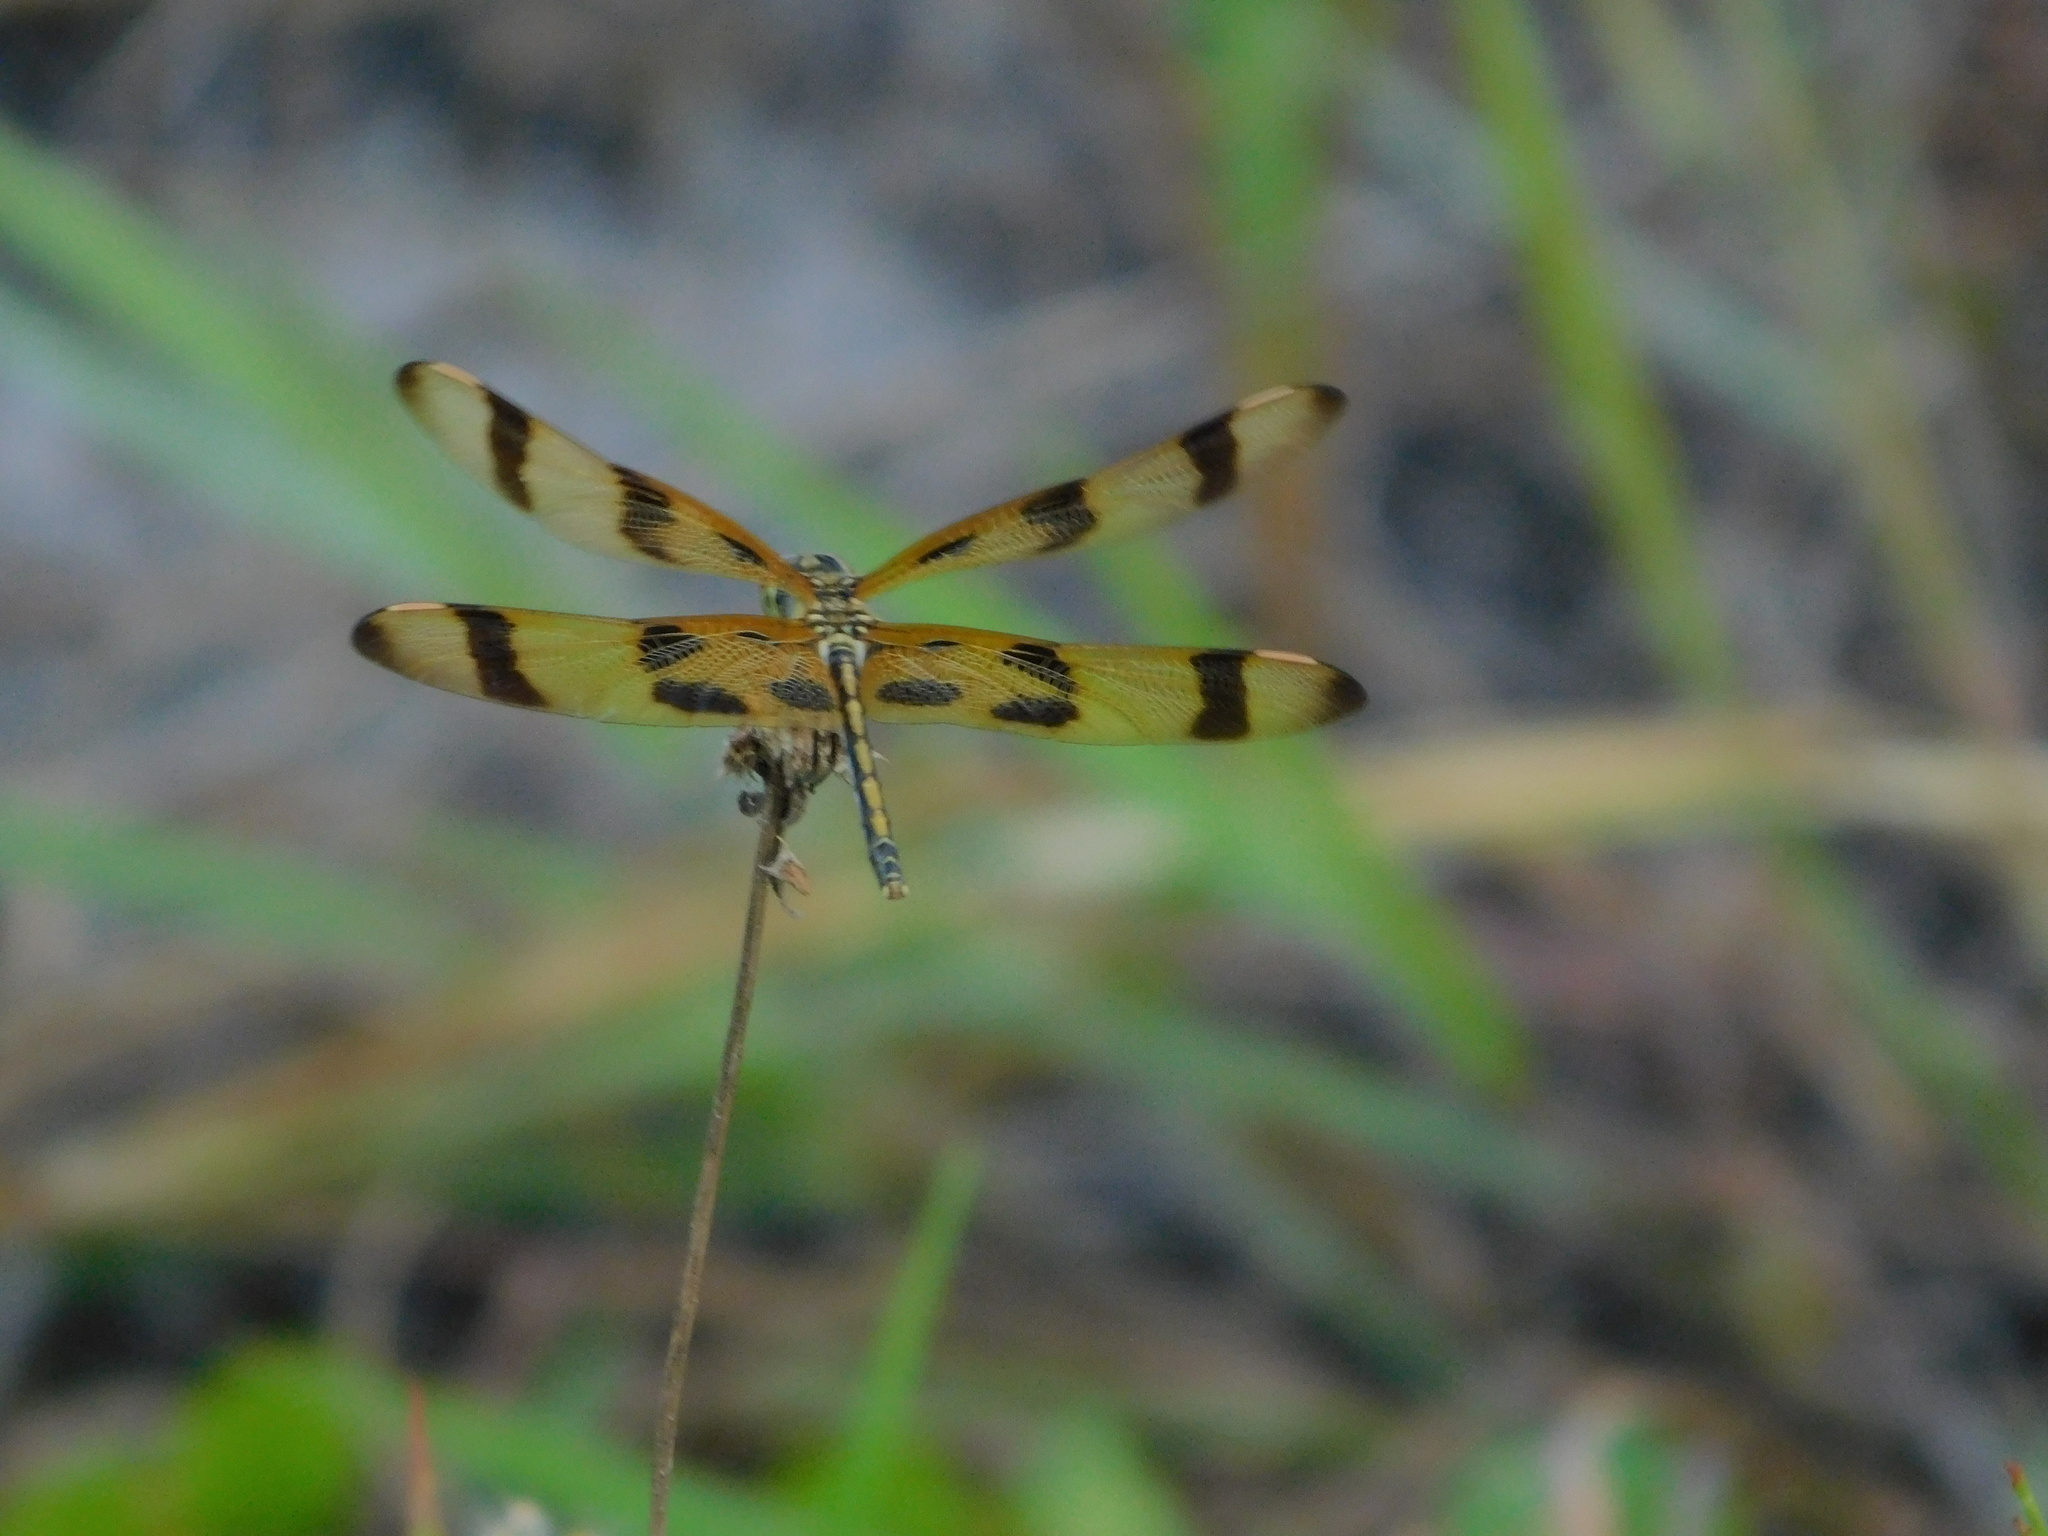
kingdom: Animalia
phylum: Arthropoda
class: Insecta
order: Odonata
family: Libellulidae
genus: Celithemis
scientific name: Celithemis eponina
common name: Halloween pennant
